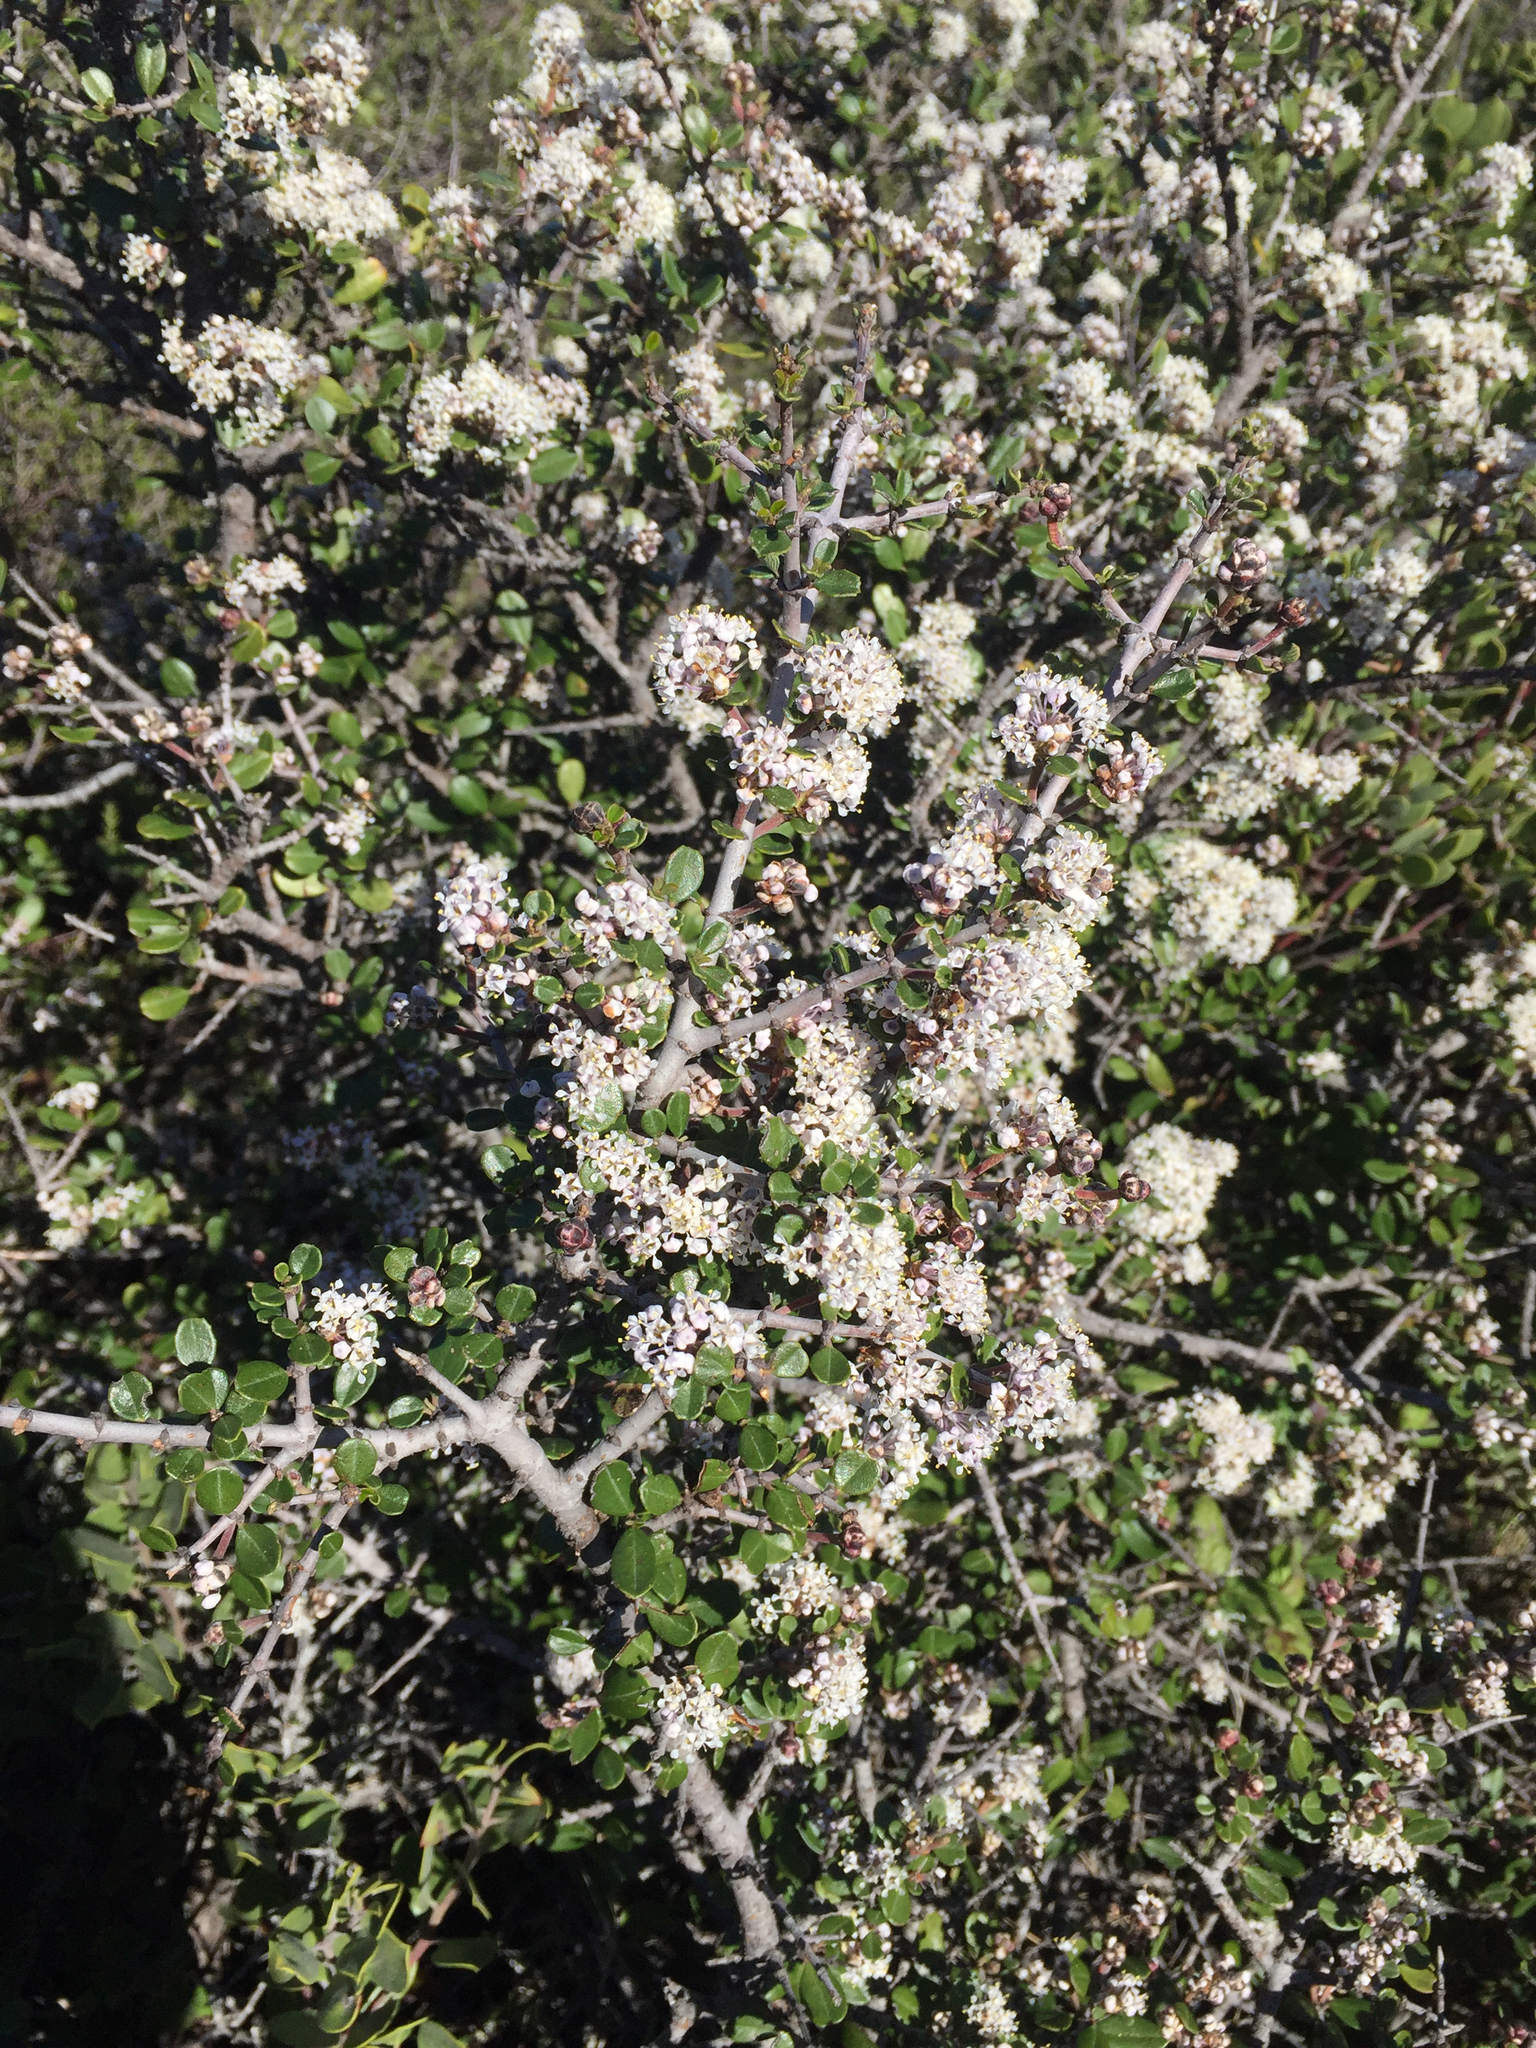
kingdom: Plantae
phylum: Tracheophyta
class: Magnoliopsida
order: Rosales
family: Rhamnaceae
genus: Ceanothus
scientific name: Ceanothus cuneatus
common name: Cuneate ceanothus
